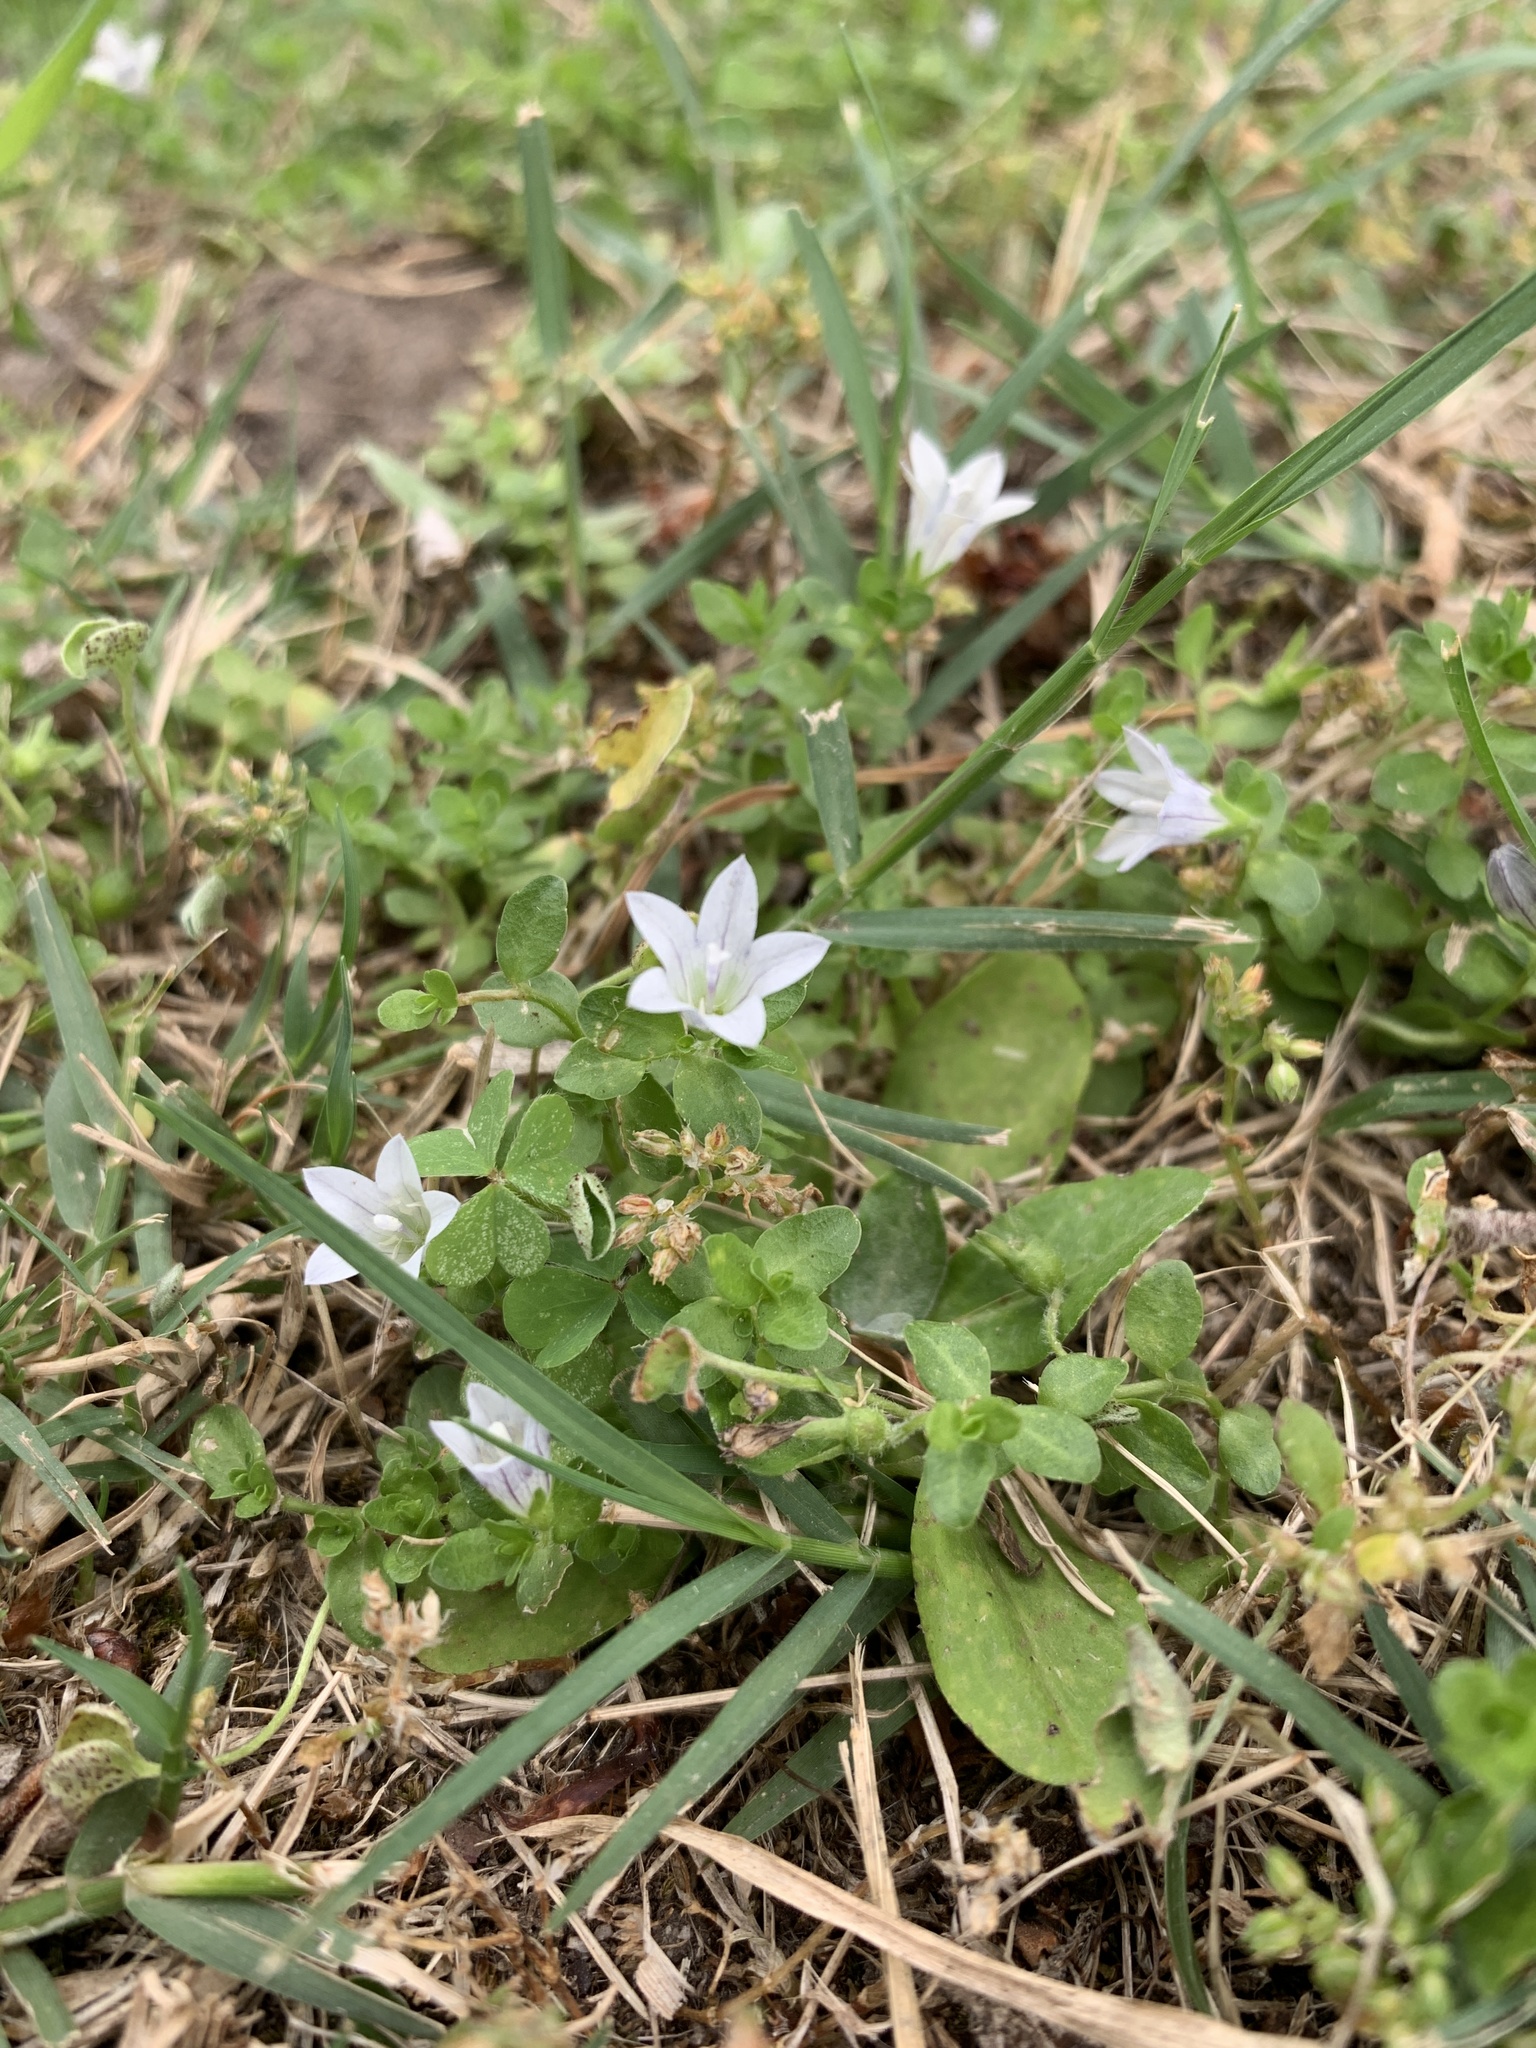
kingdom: Plantae
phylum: Tracheophyta
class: Magnoliopsida
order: Asterales
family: Campanulaceae
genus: Wahlenbergia
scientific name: Wahlenbergia procumbens
